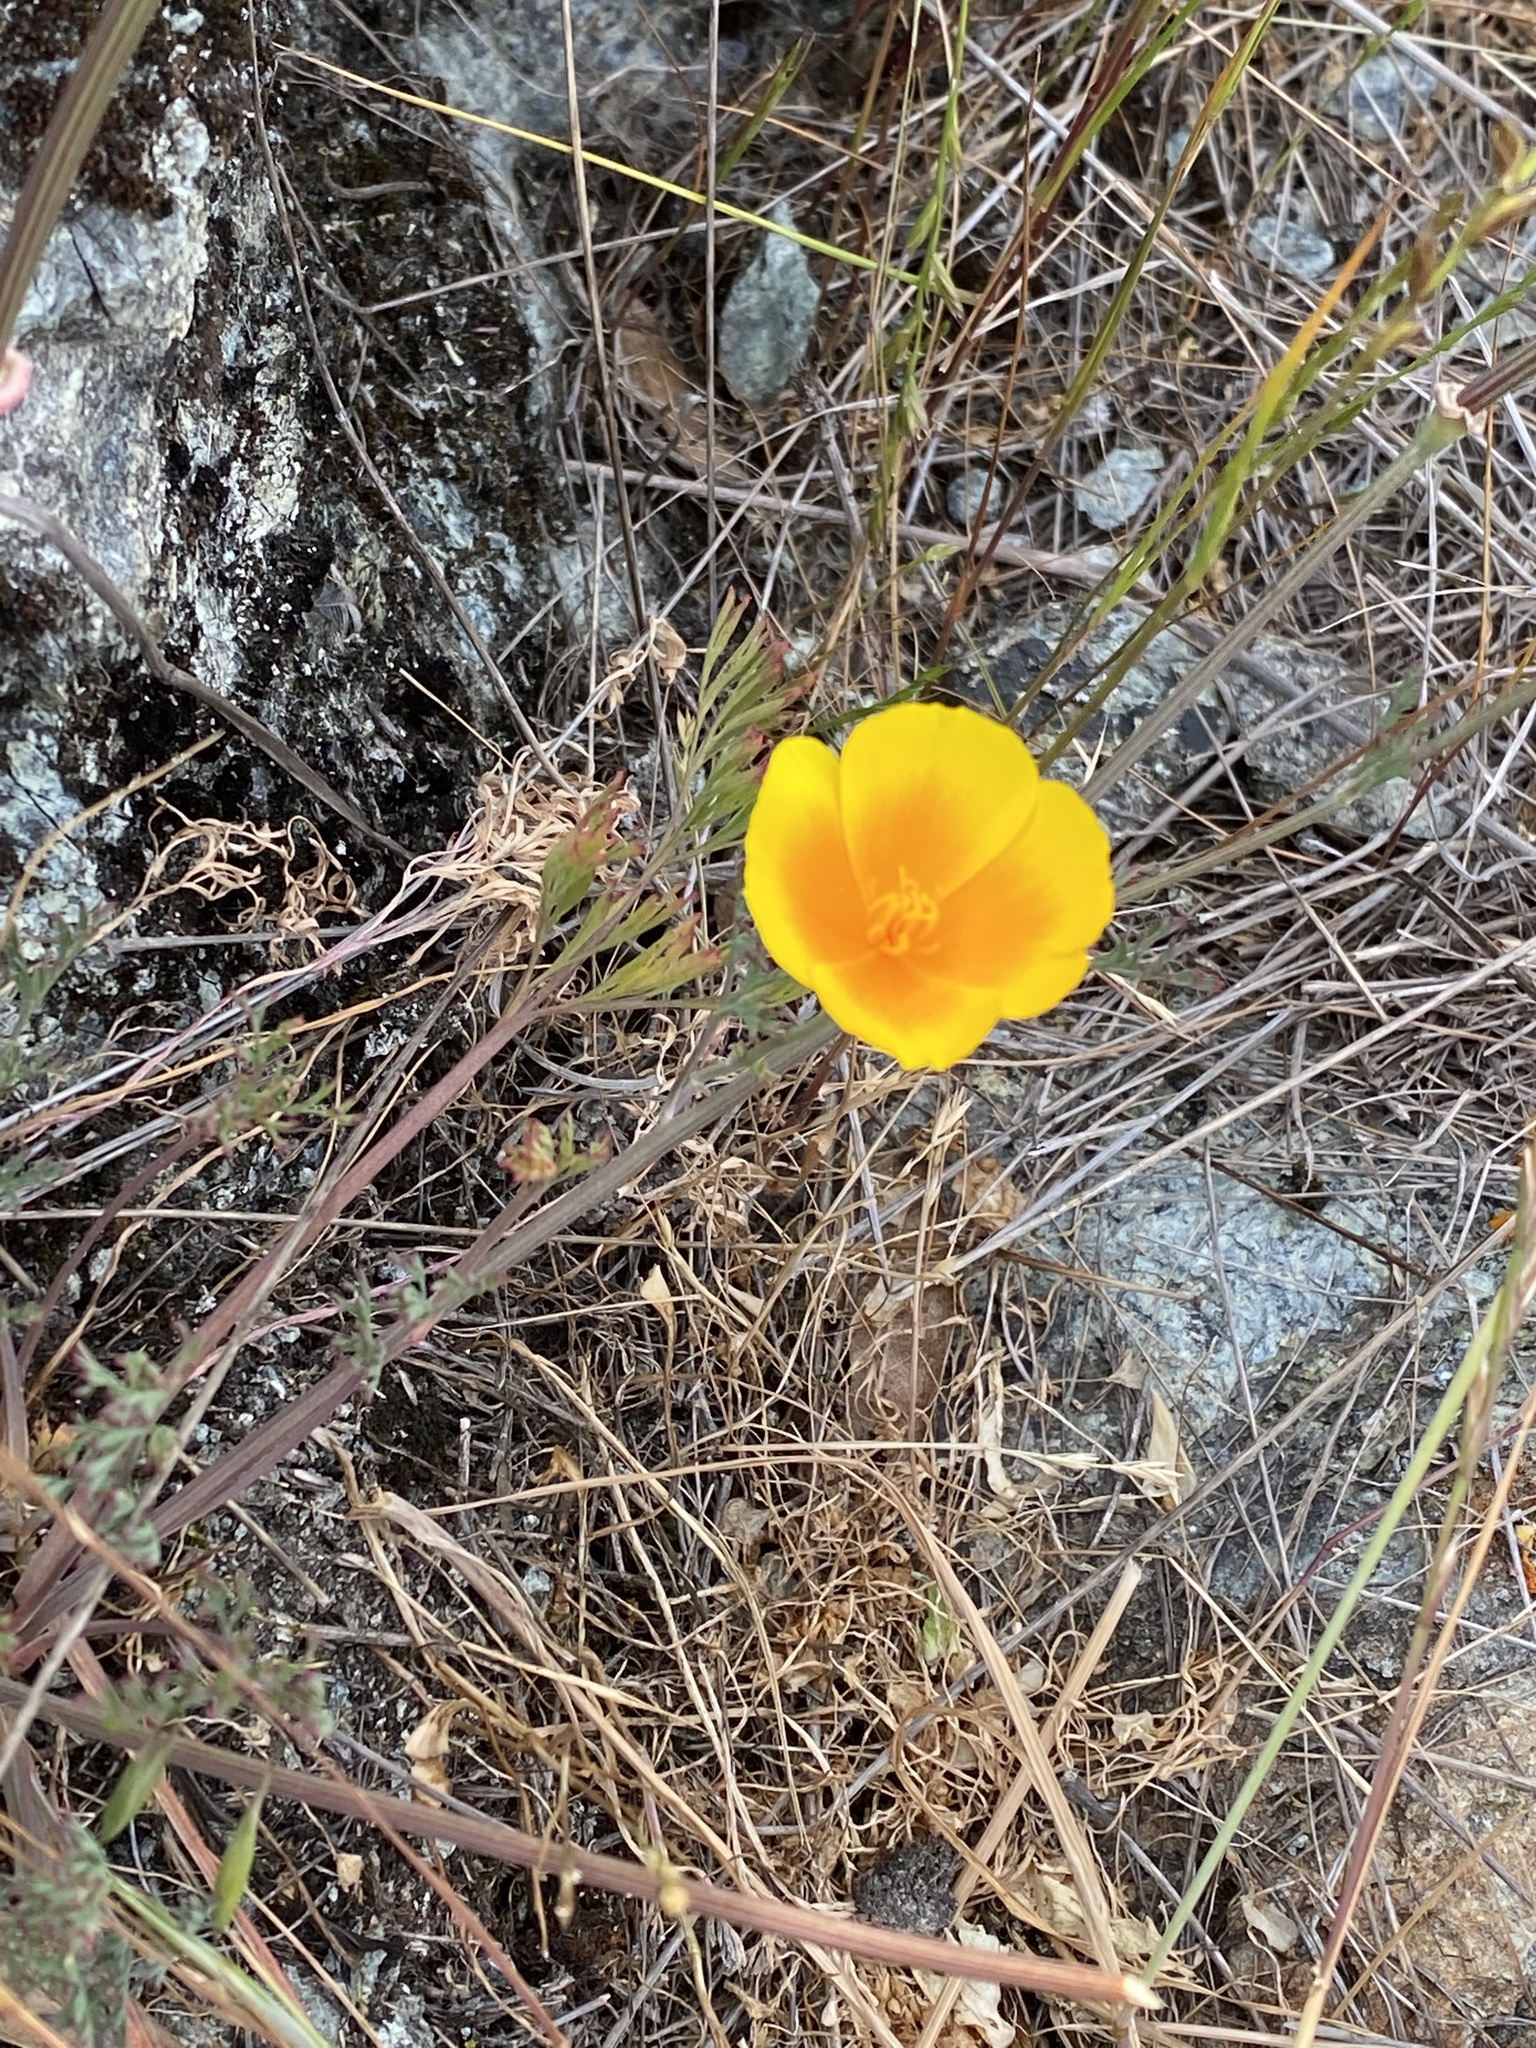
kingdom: Plantae
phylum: Tracheophyta
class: Magnoliopsida
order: Ranunculales
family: Papaveraceae
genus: Eschscholzia
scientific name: Eschscholzia californica
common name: California poppy
